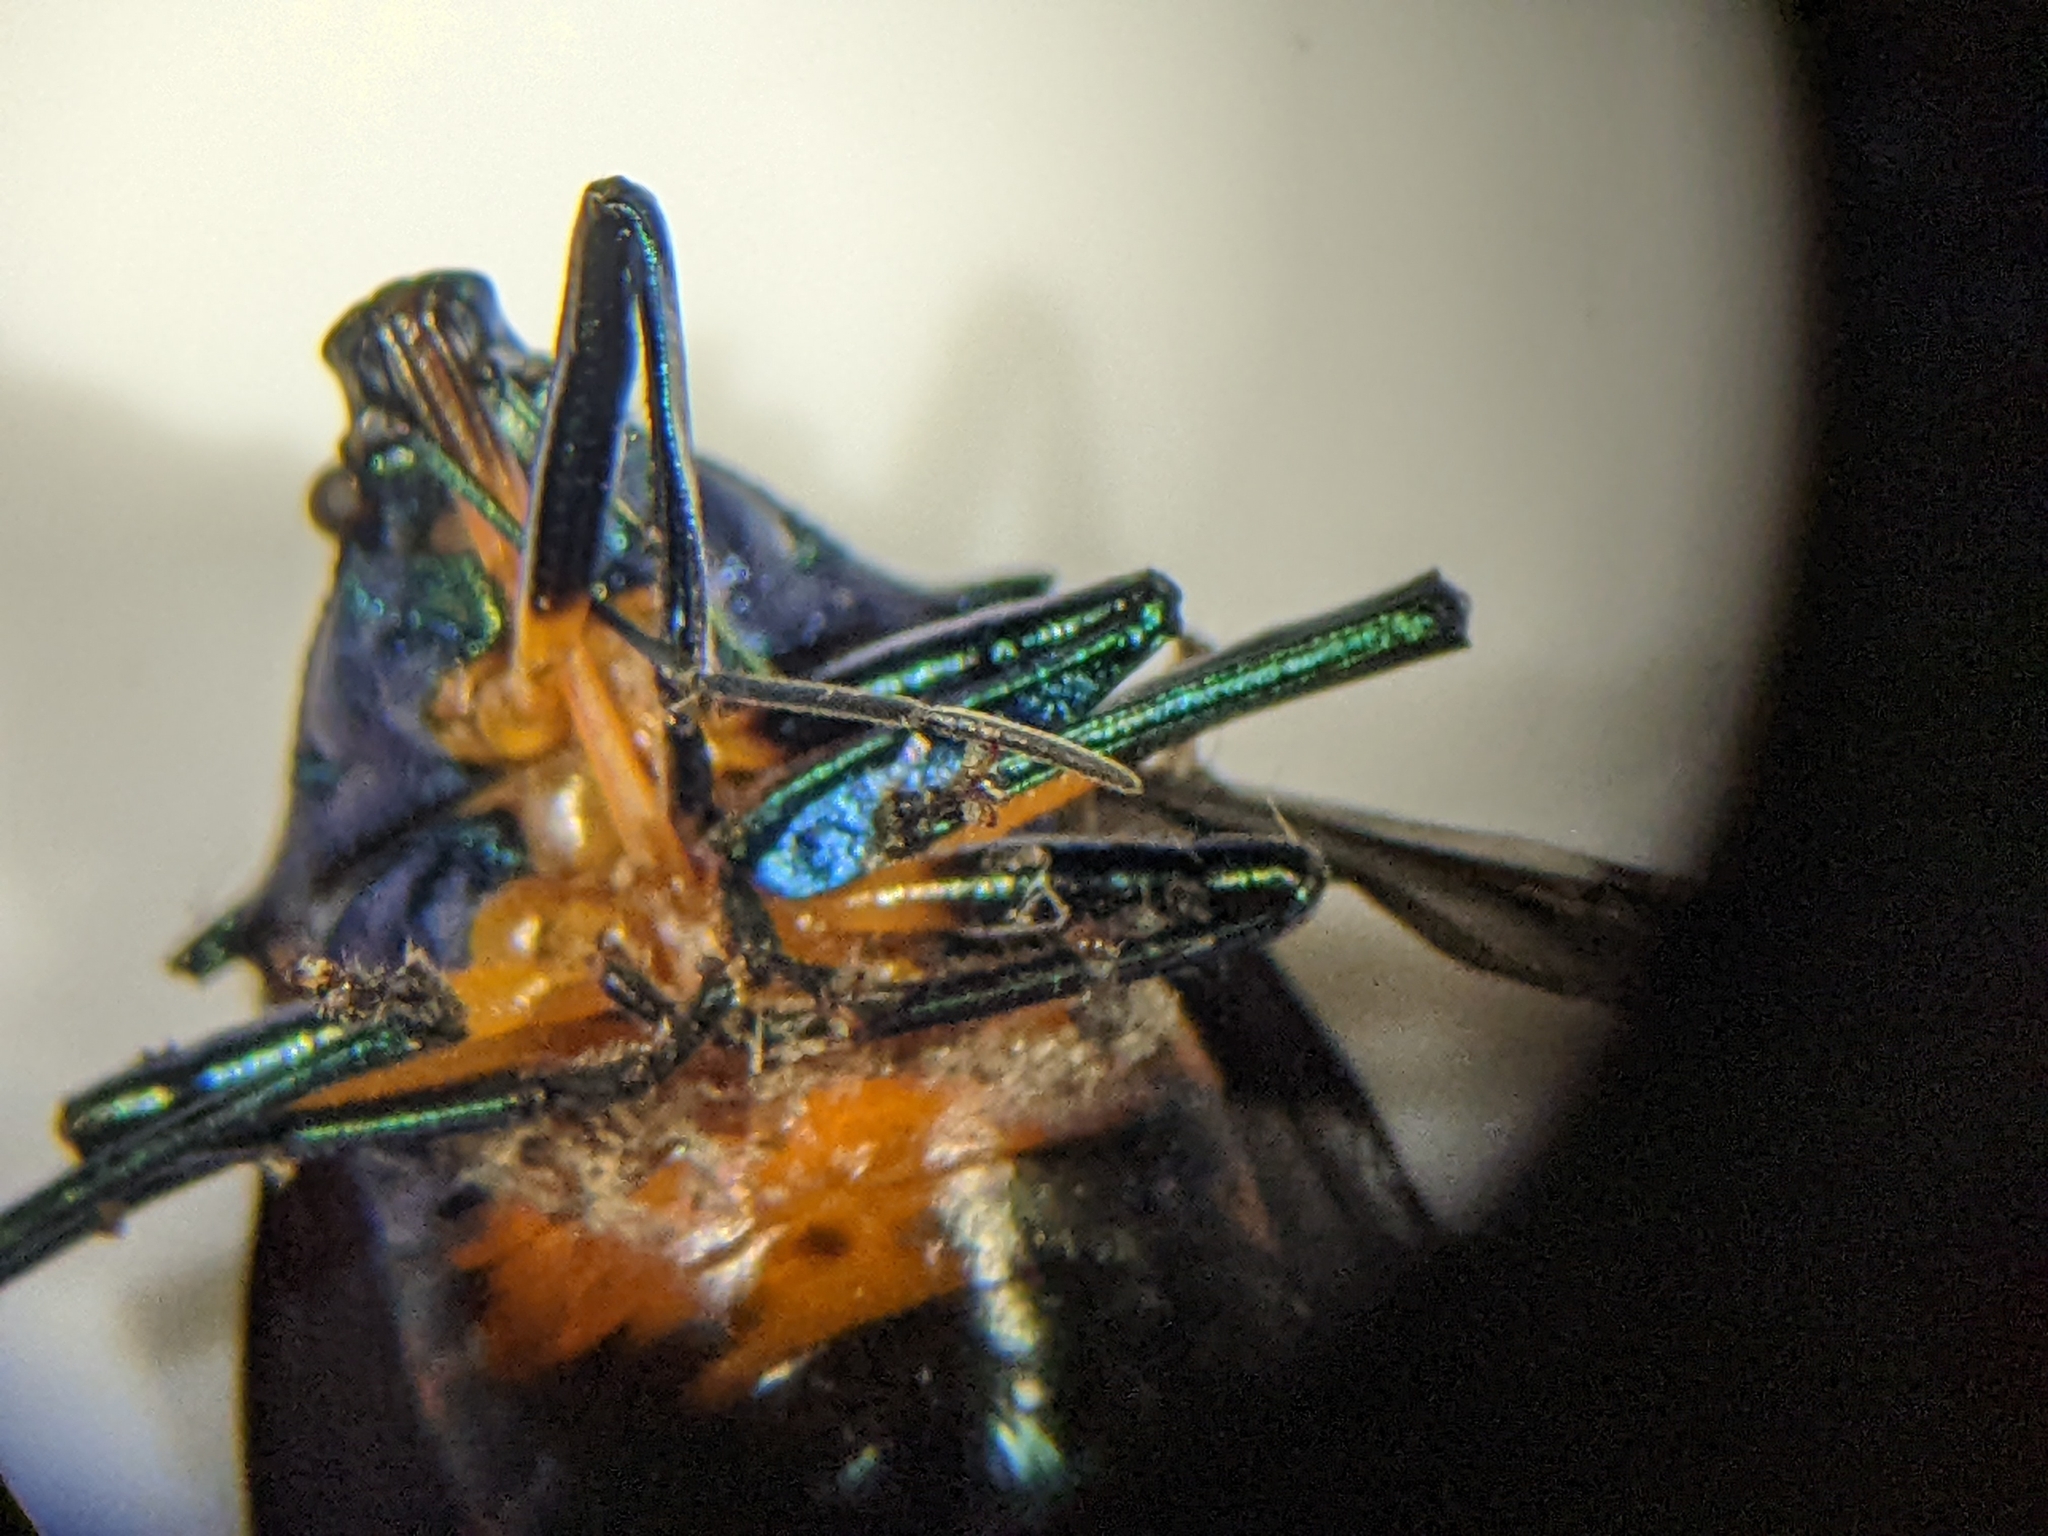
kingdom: Animalia
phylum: Arthropoda
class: Insecta
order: Hemiptera
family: Pentatomidae
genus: Euthyrhynchus
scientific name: Euthyrhynchus floridanus
